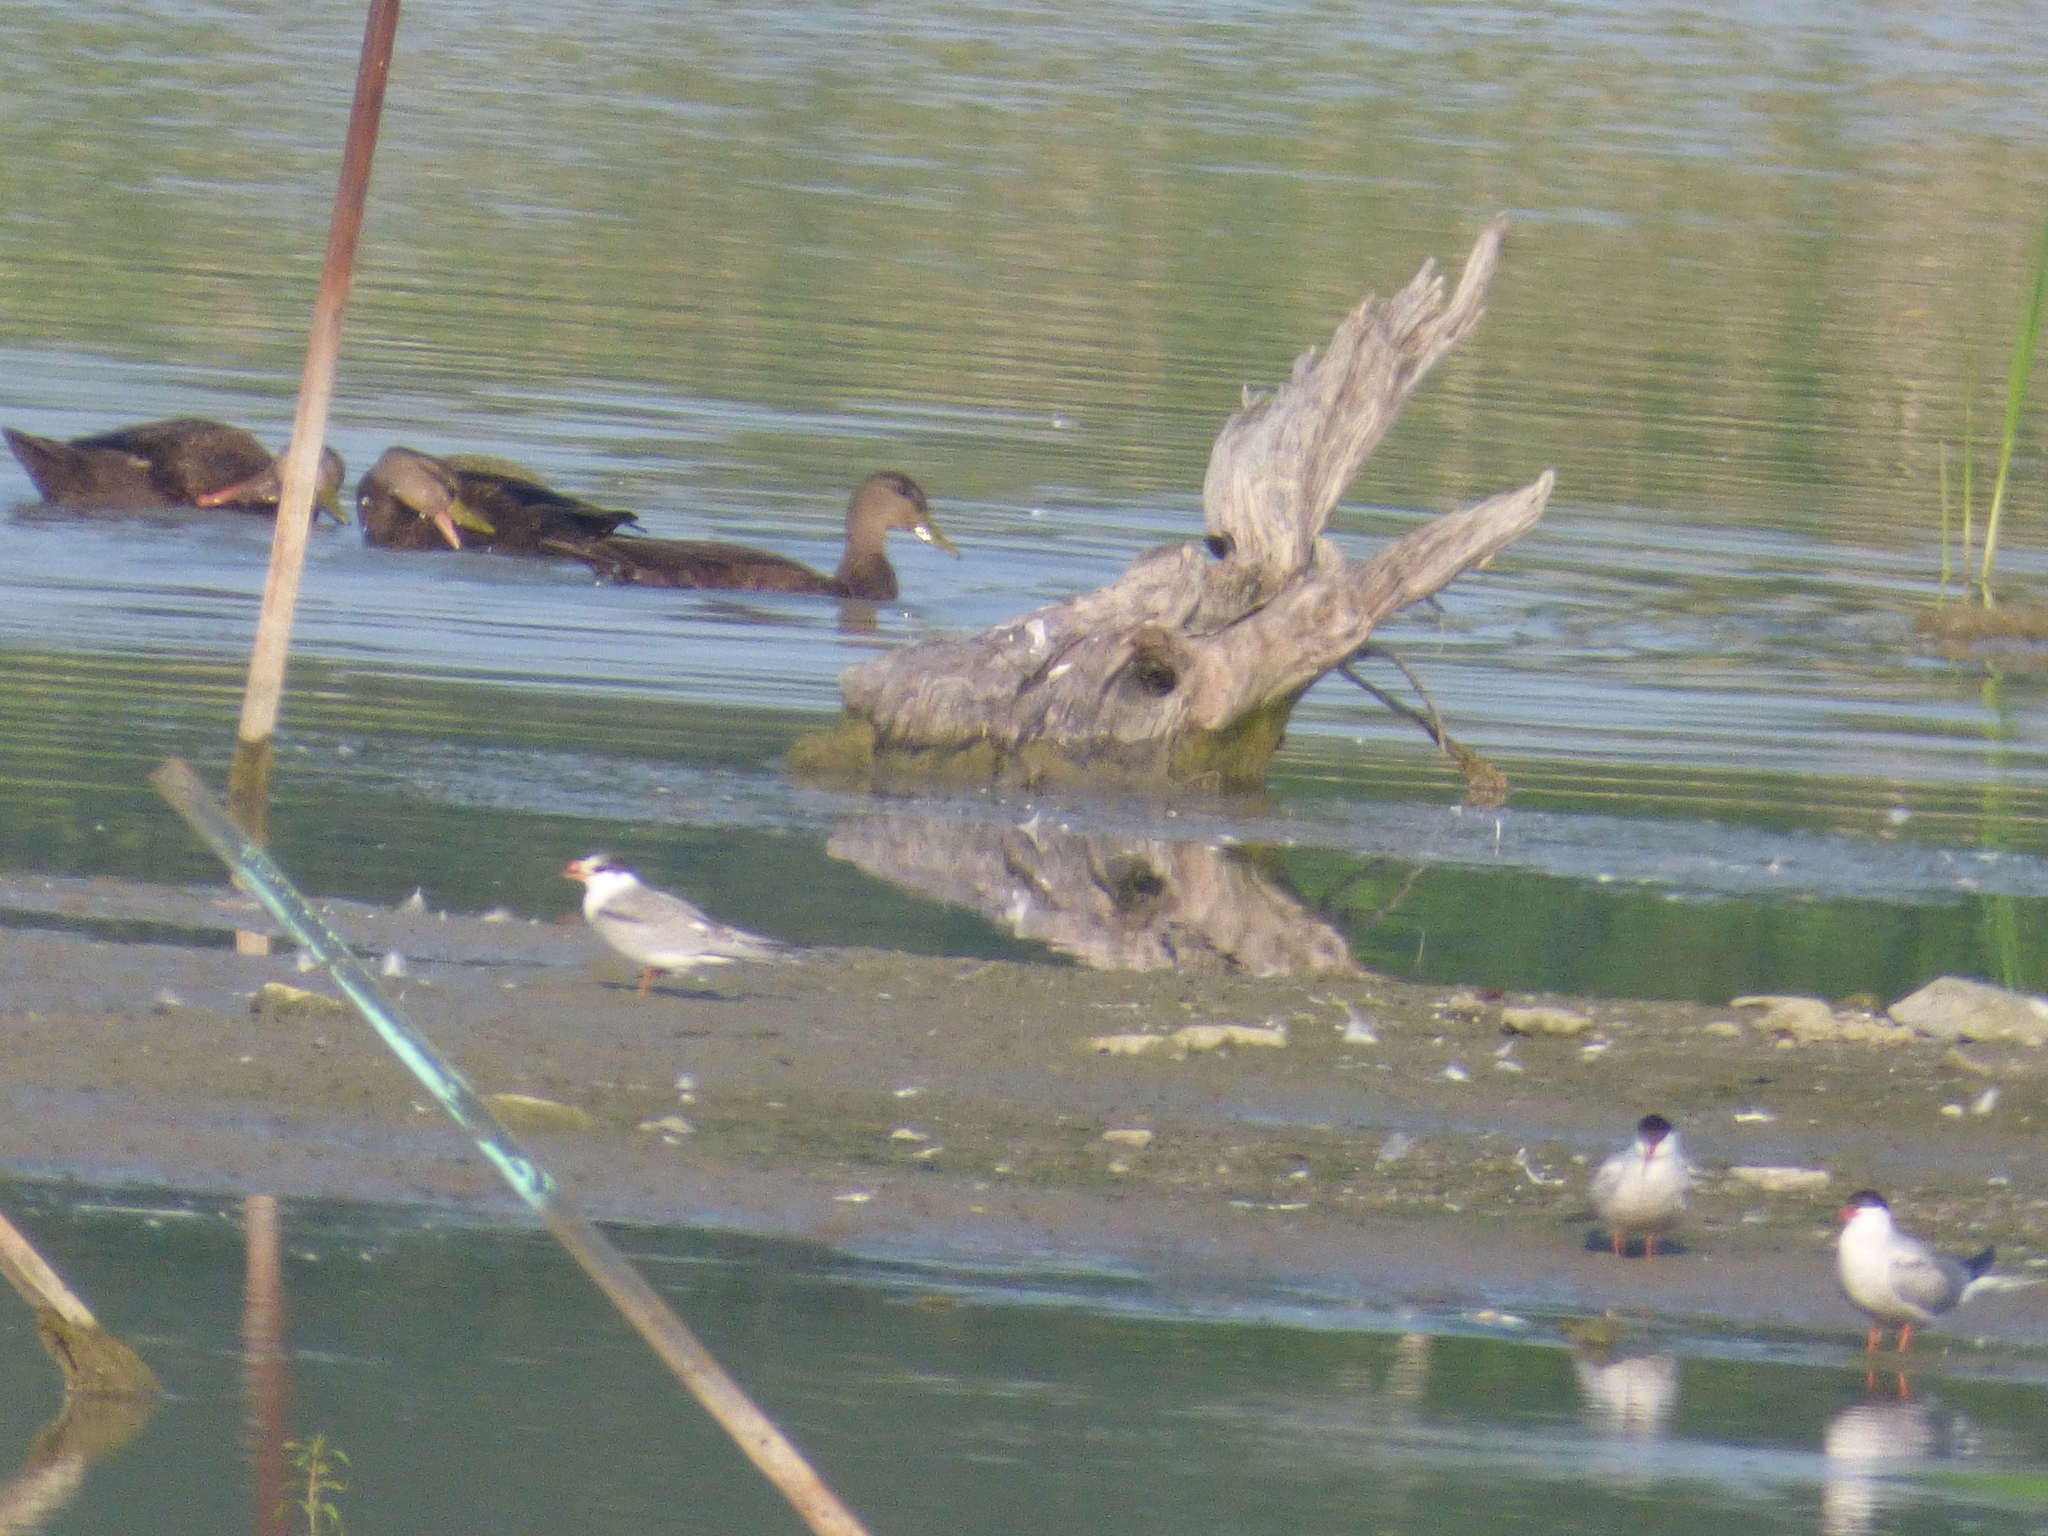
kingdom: Animalia
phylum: Chordata
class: Aves
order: Anseriformes
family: Anatidae
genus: Anas
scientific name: Anas rubripes
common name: American black duck
